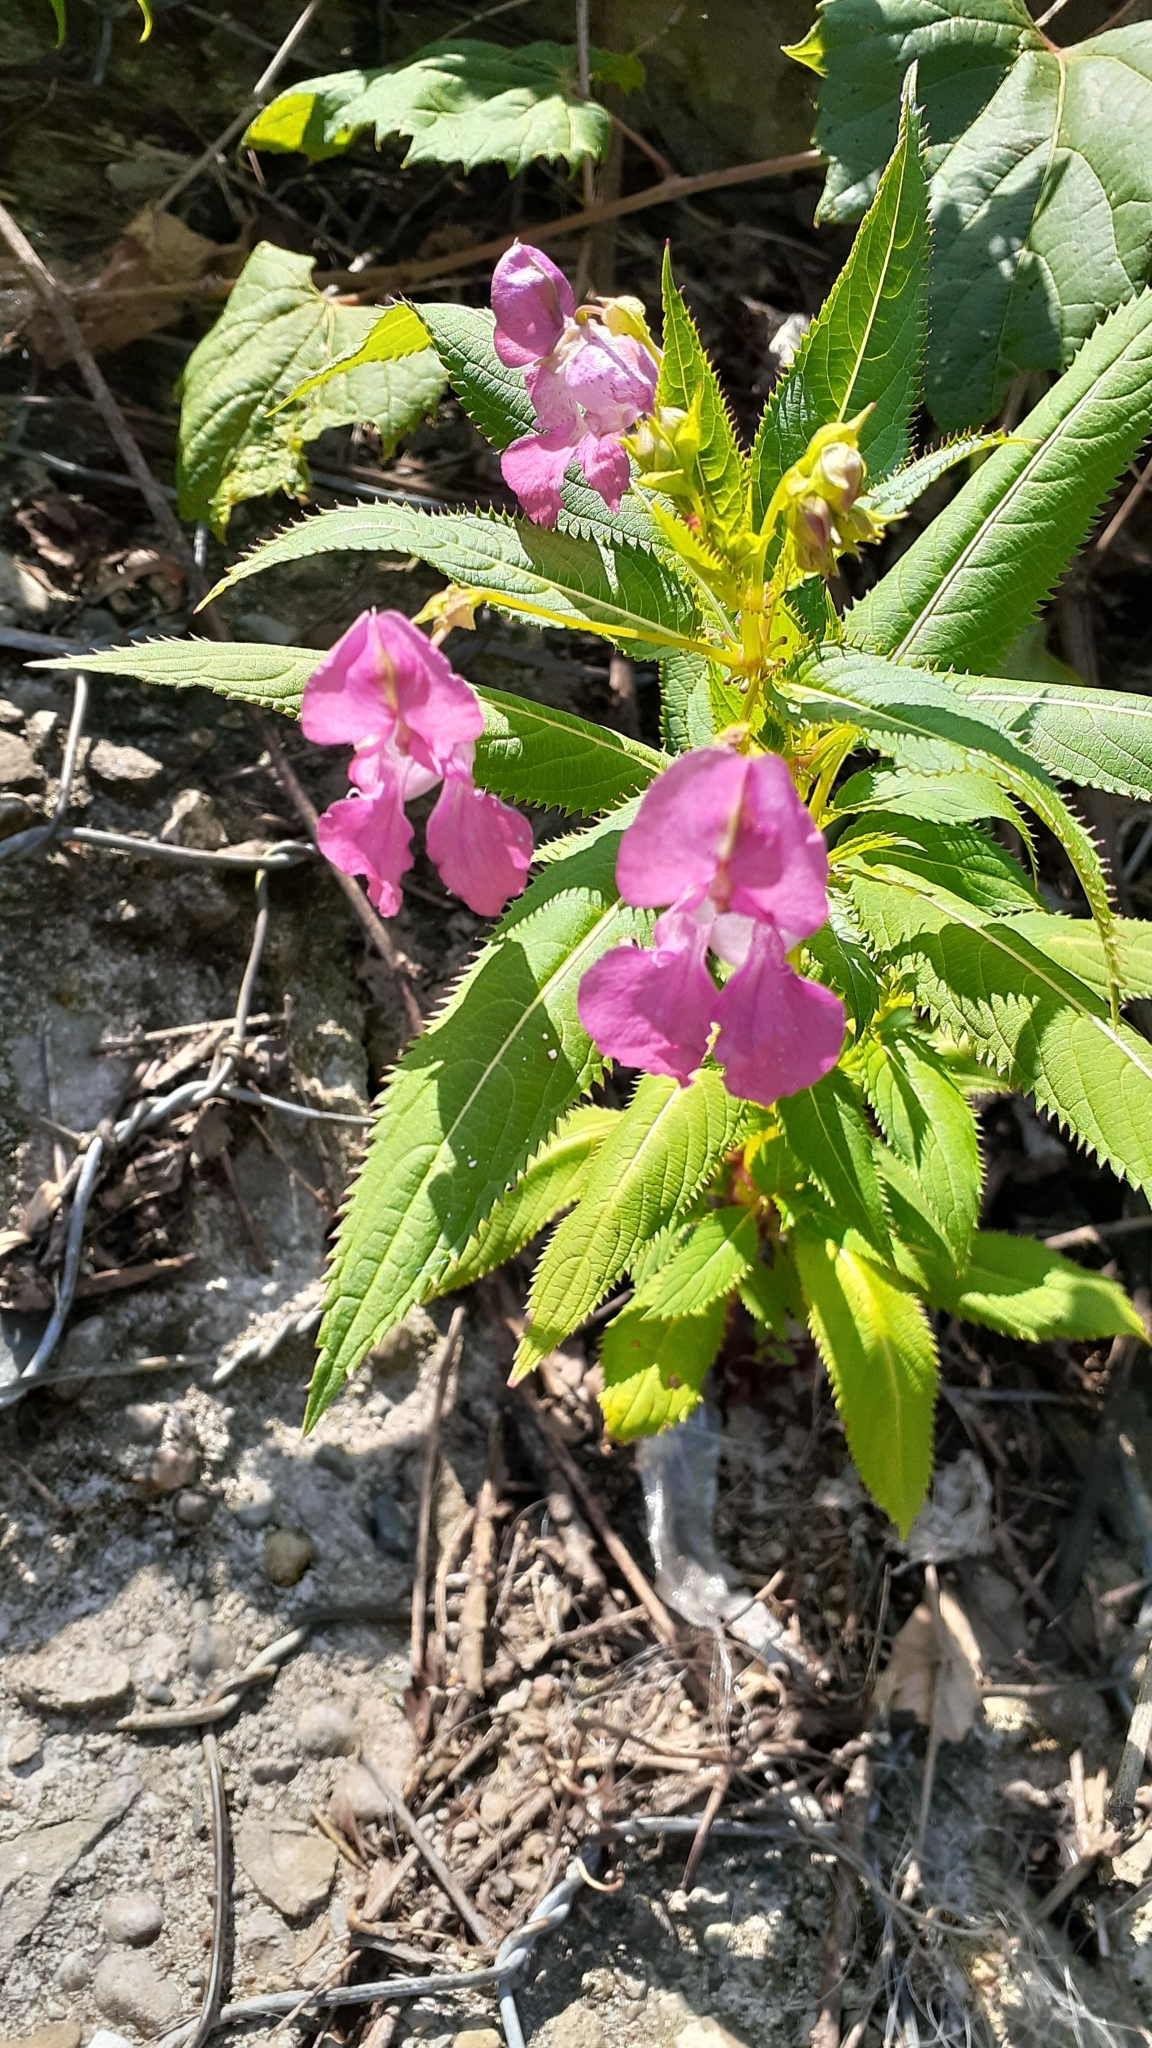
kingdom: Plantae
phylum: Tracheophyta
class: Magnoliopsida
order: Ericales
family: Balsaminaceae
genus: Impatiens
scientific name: Impatiens glandulifera
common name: Himalayan balsam
